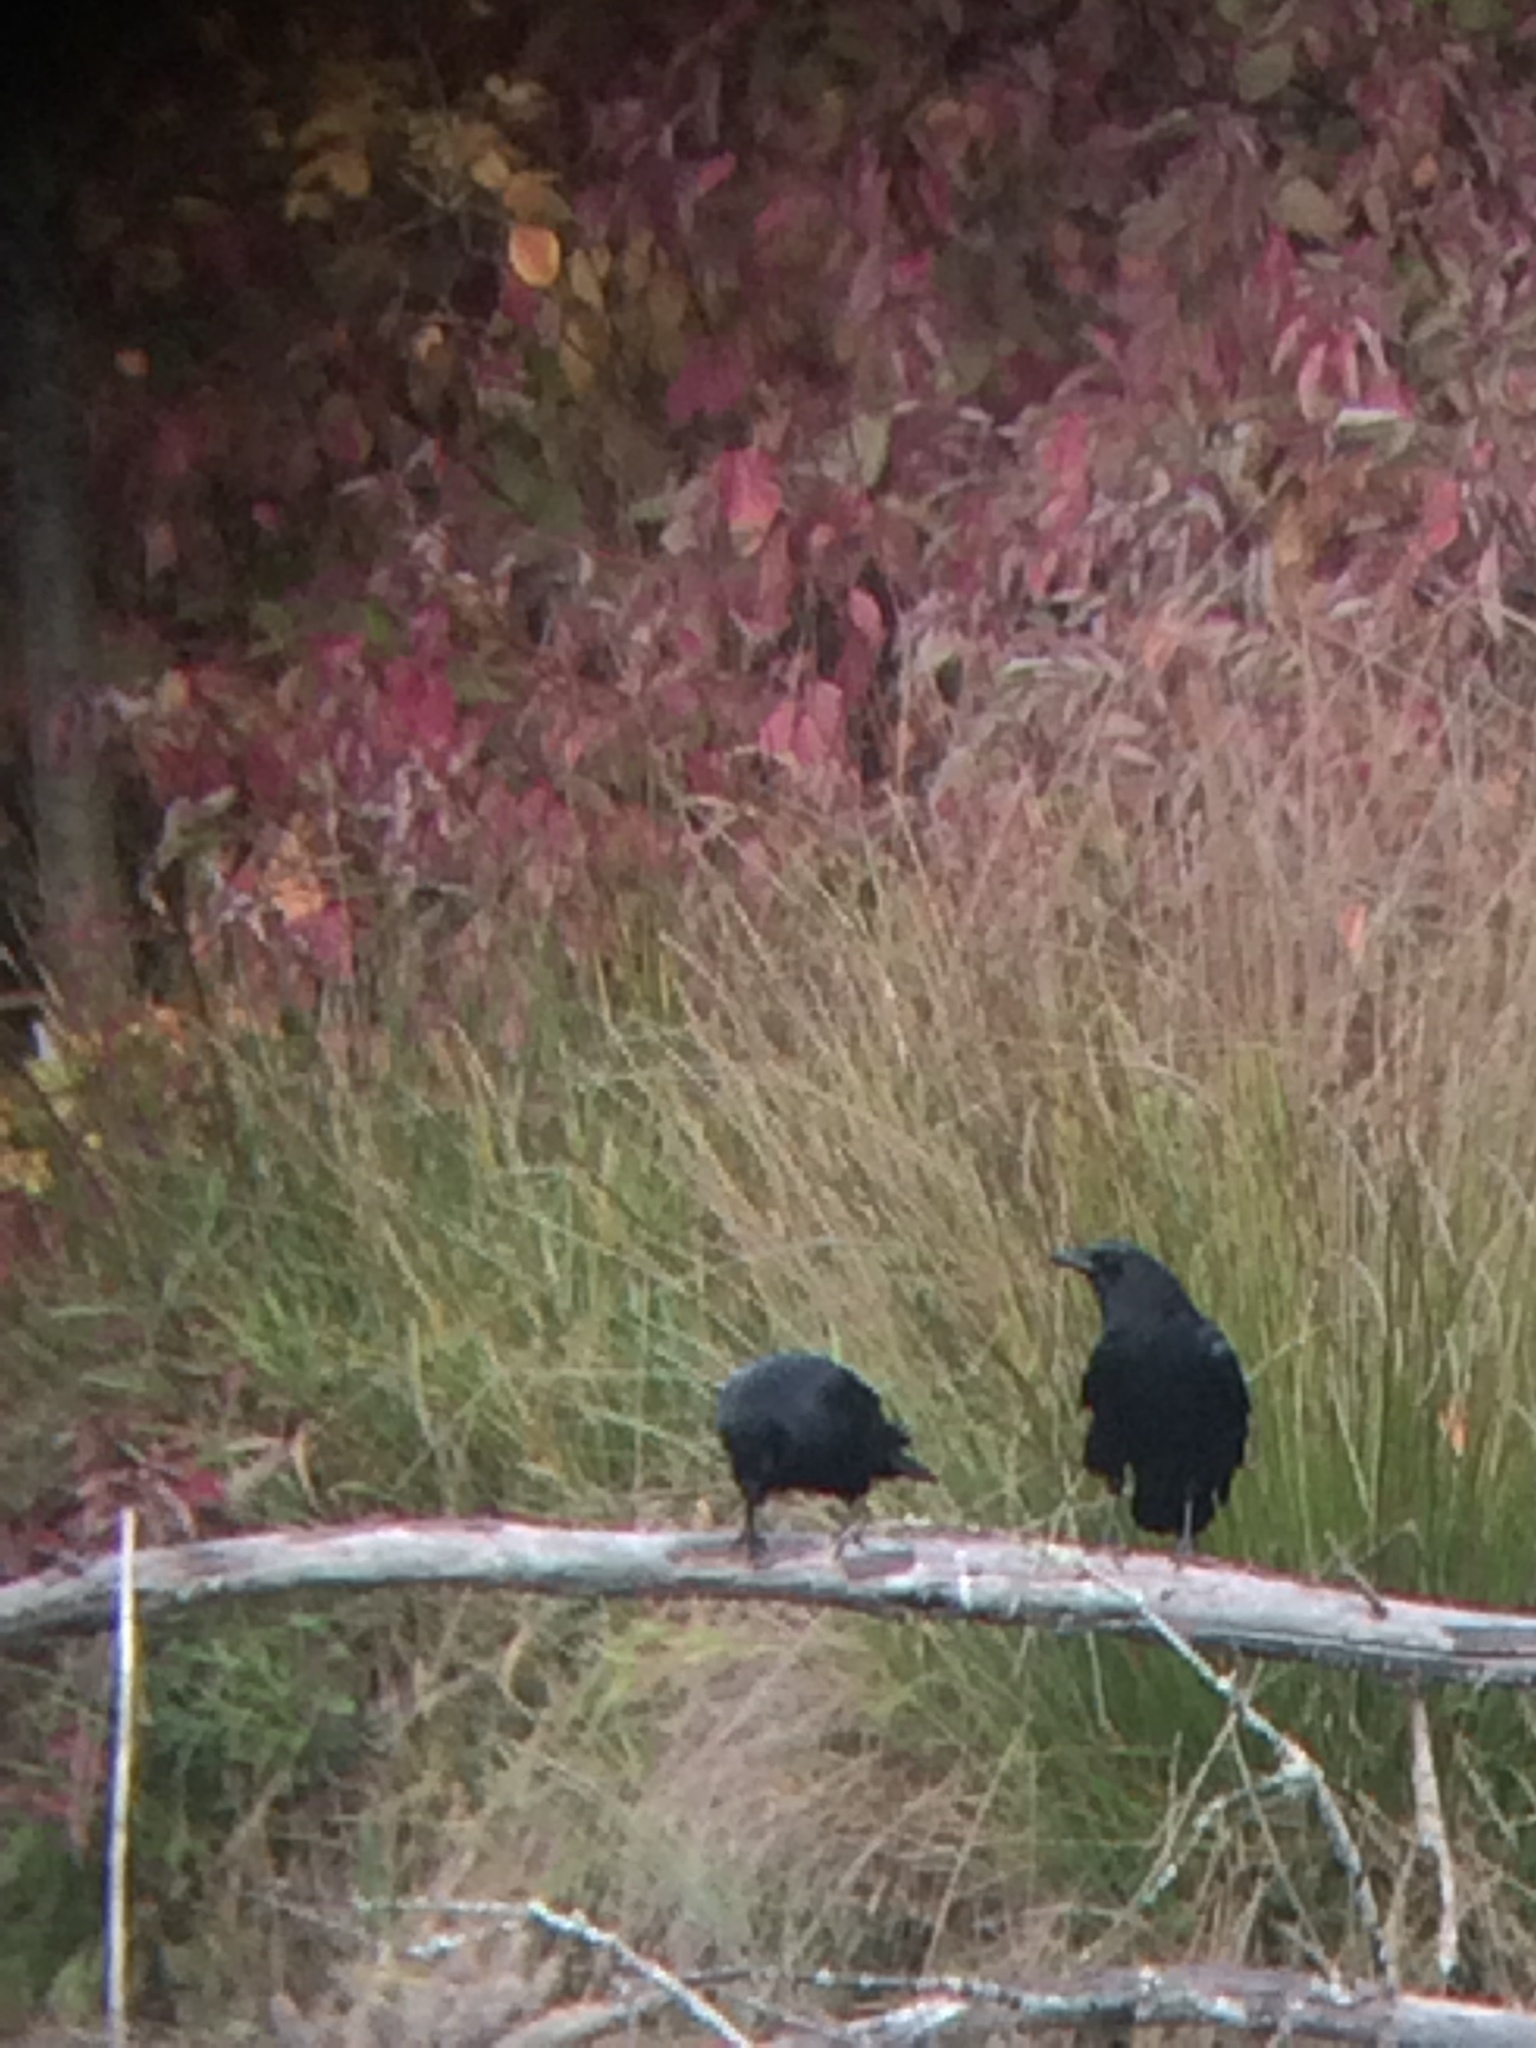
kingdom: Animalia
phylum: Chordata
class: Aves
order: Passeriformes
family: Corvidae
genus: Corvus
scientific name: Corvus brachyrhynchos
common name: American crow
